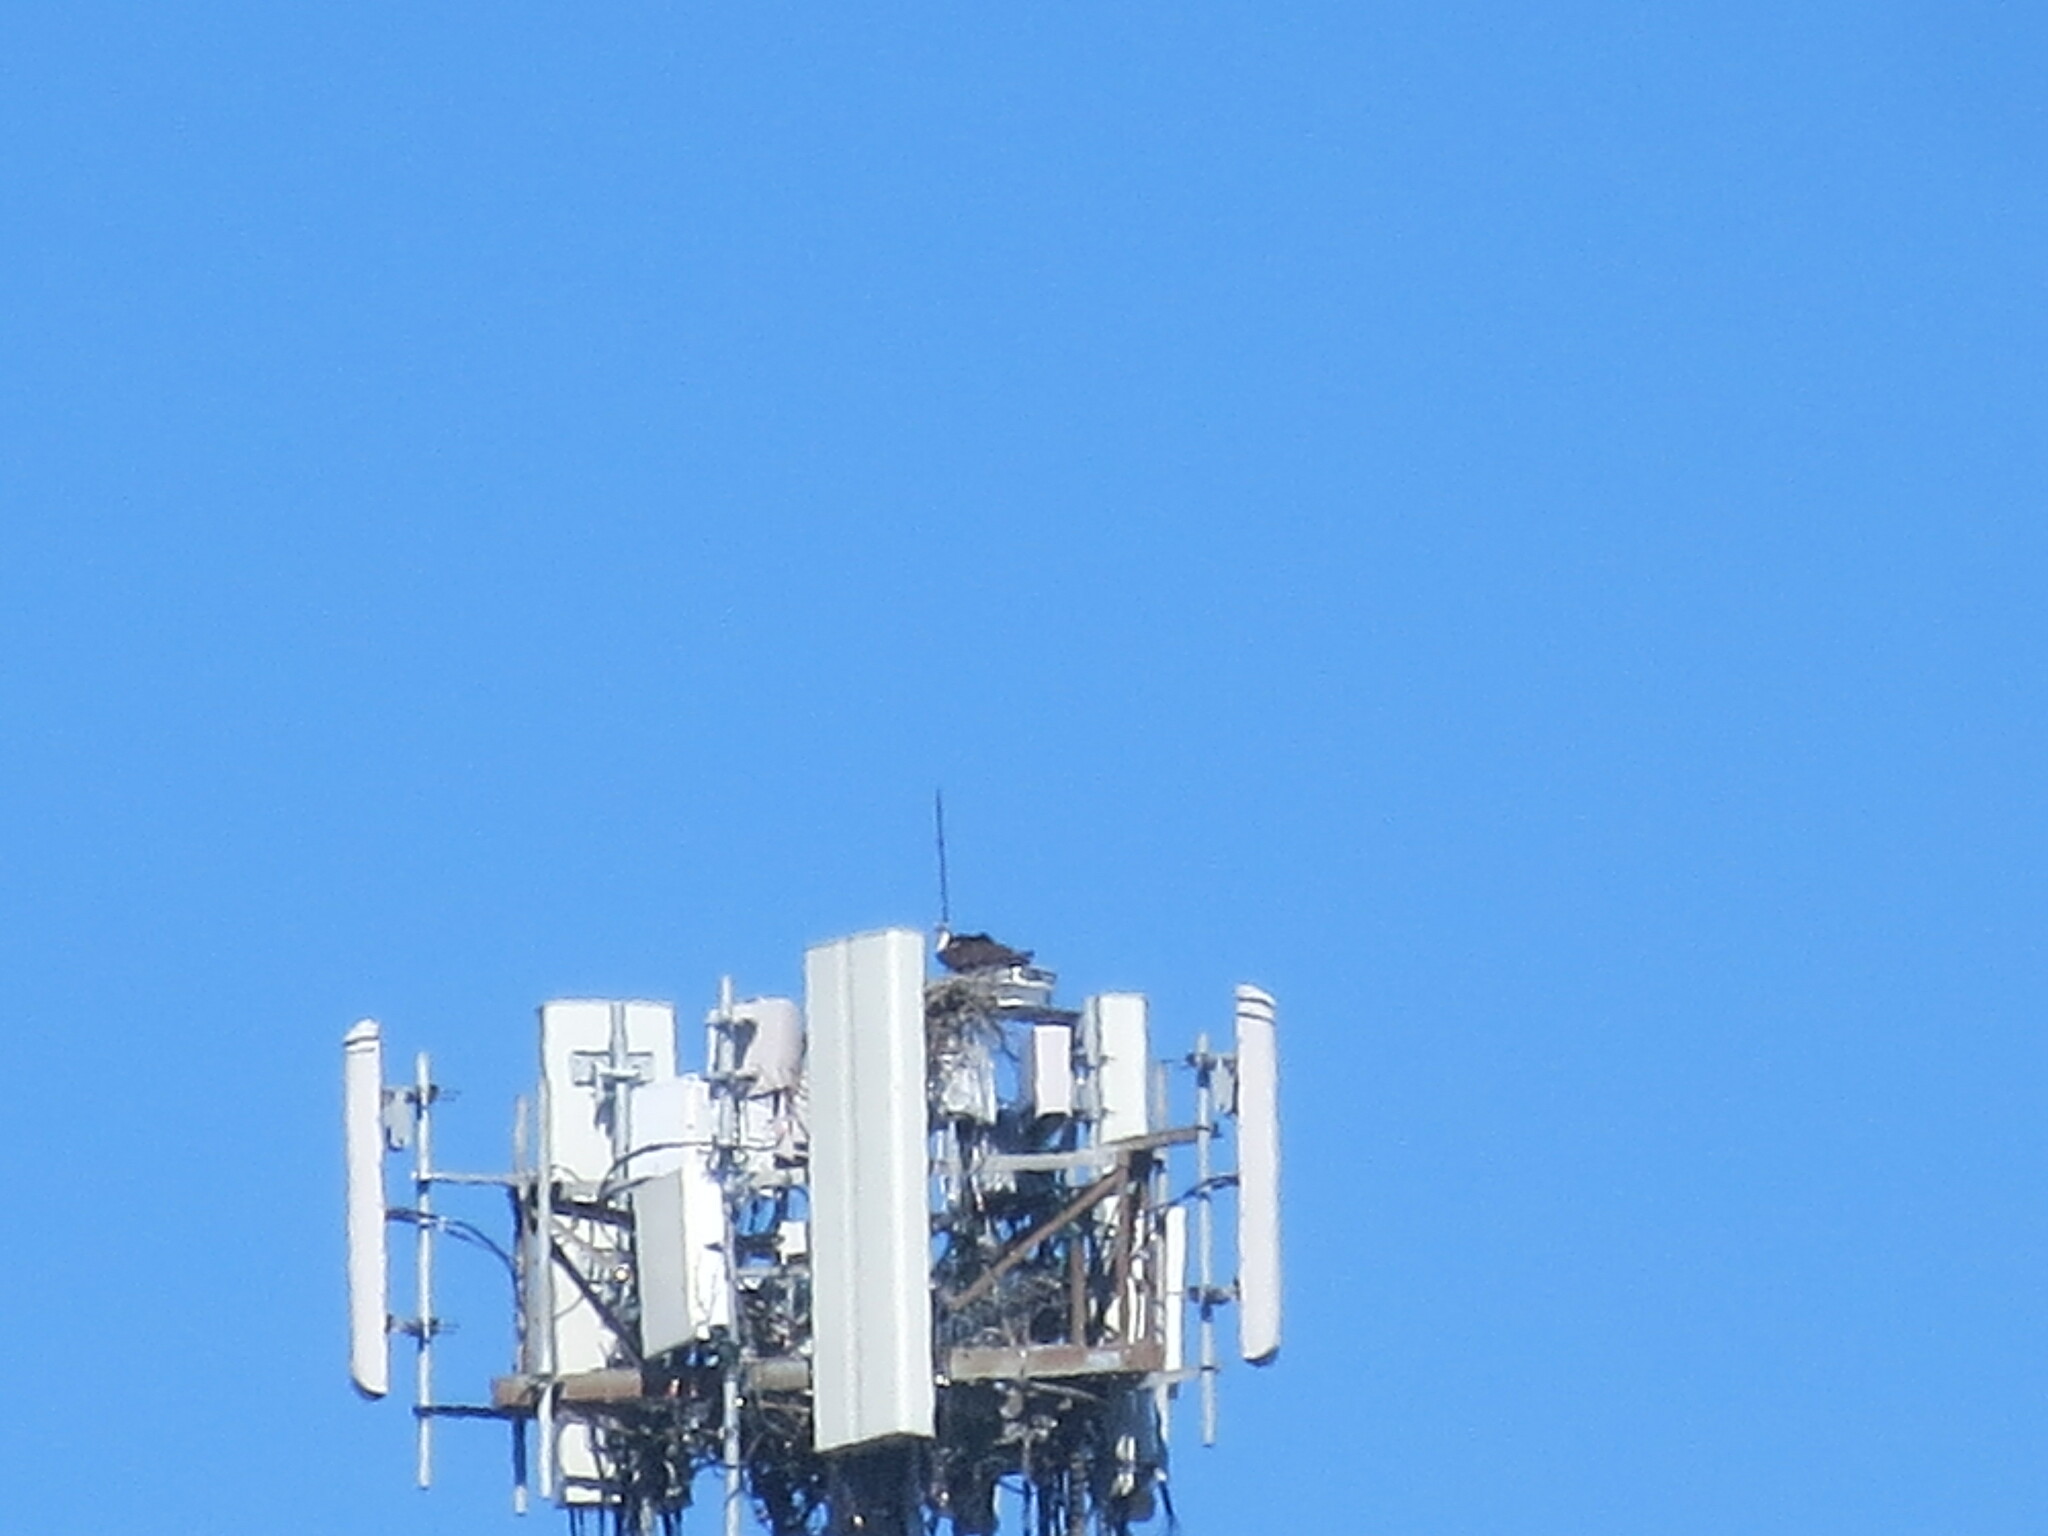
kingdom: Animalia
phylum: Chordata
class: Aves
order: Accipitriformes
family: Pandionidae
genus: Pandion
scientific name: Pandion haliaetus
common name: Osprey
